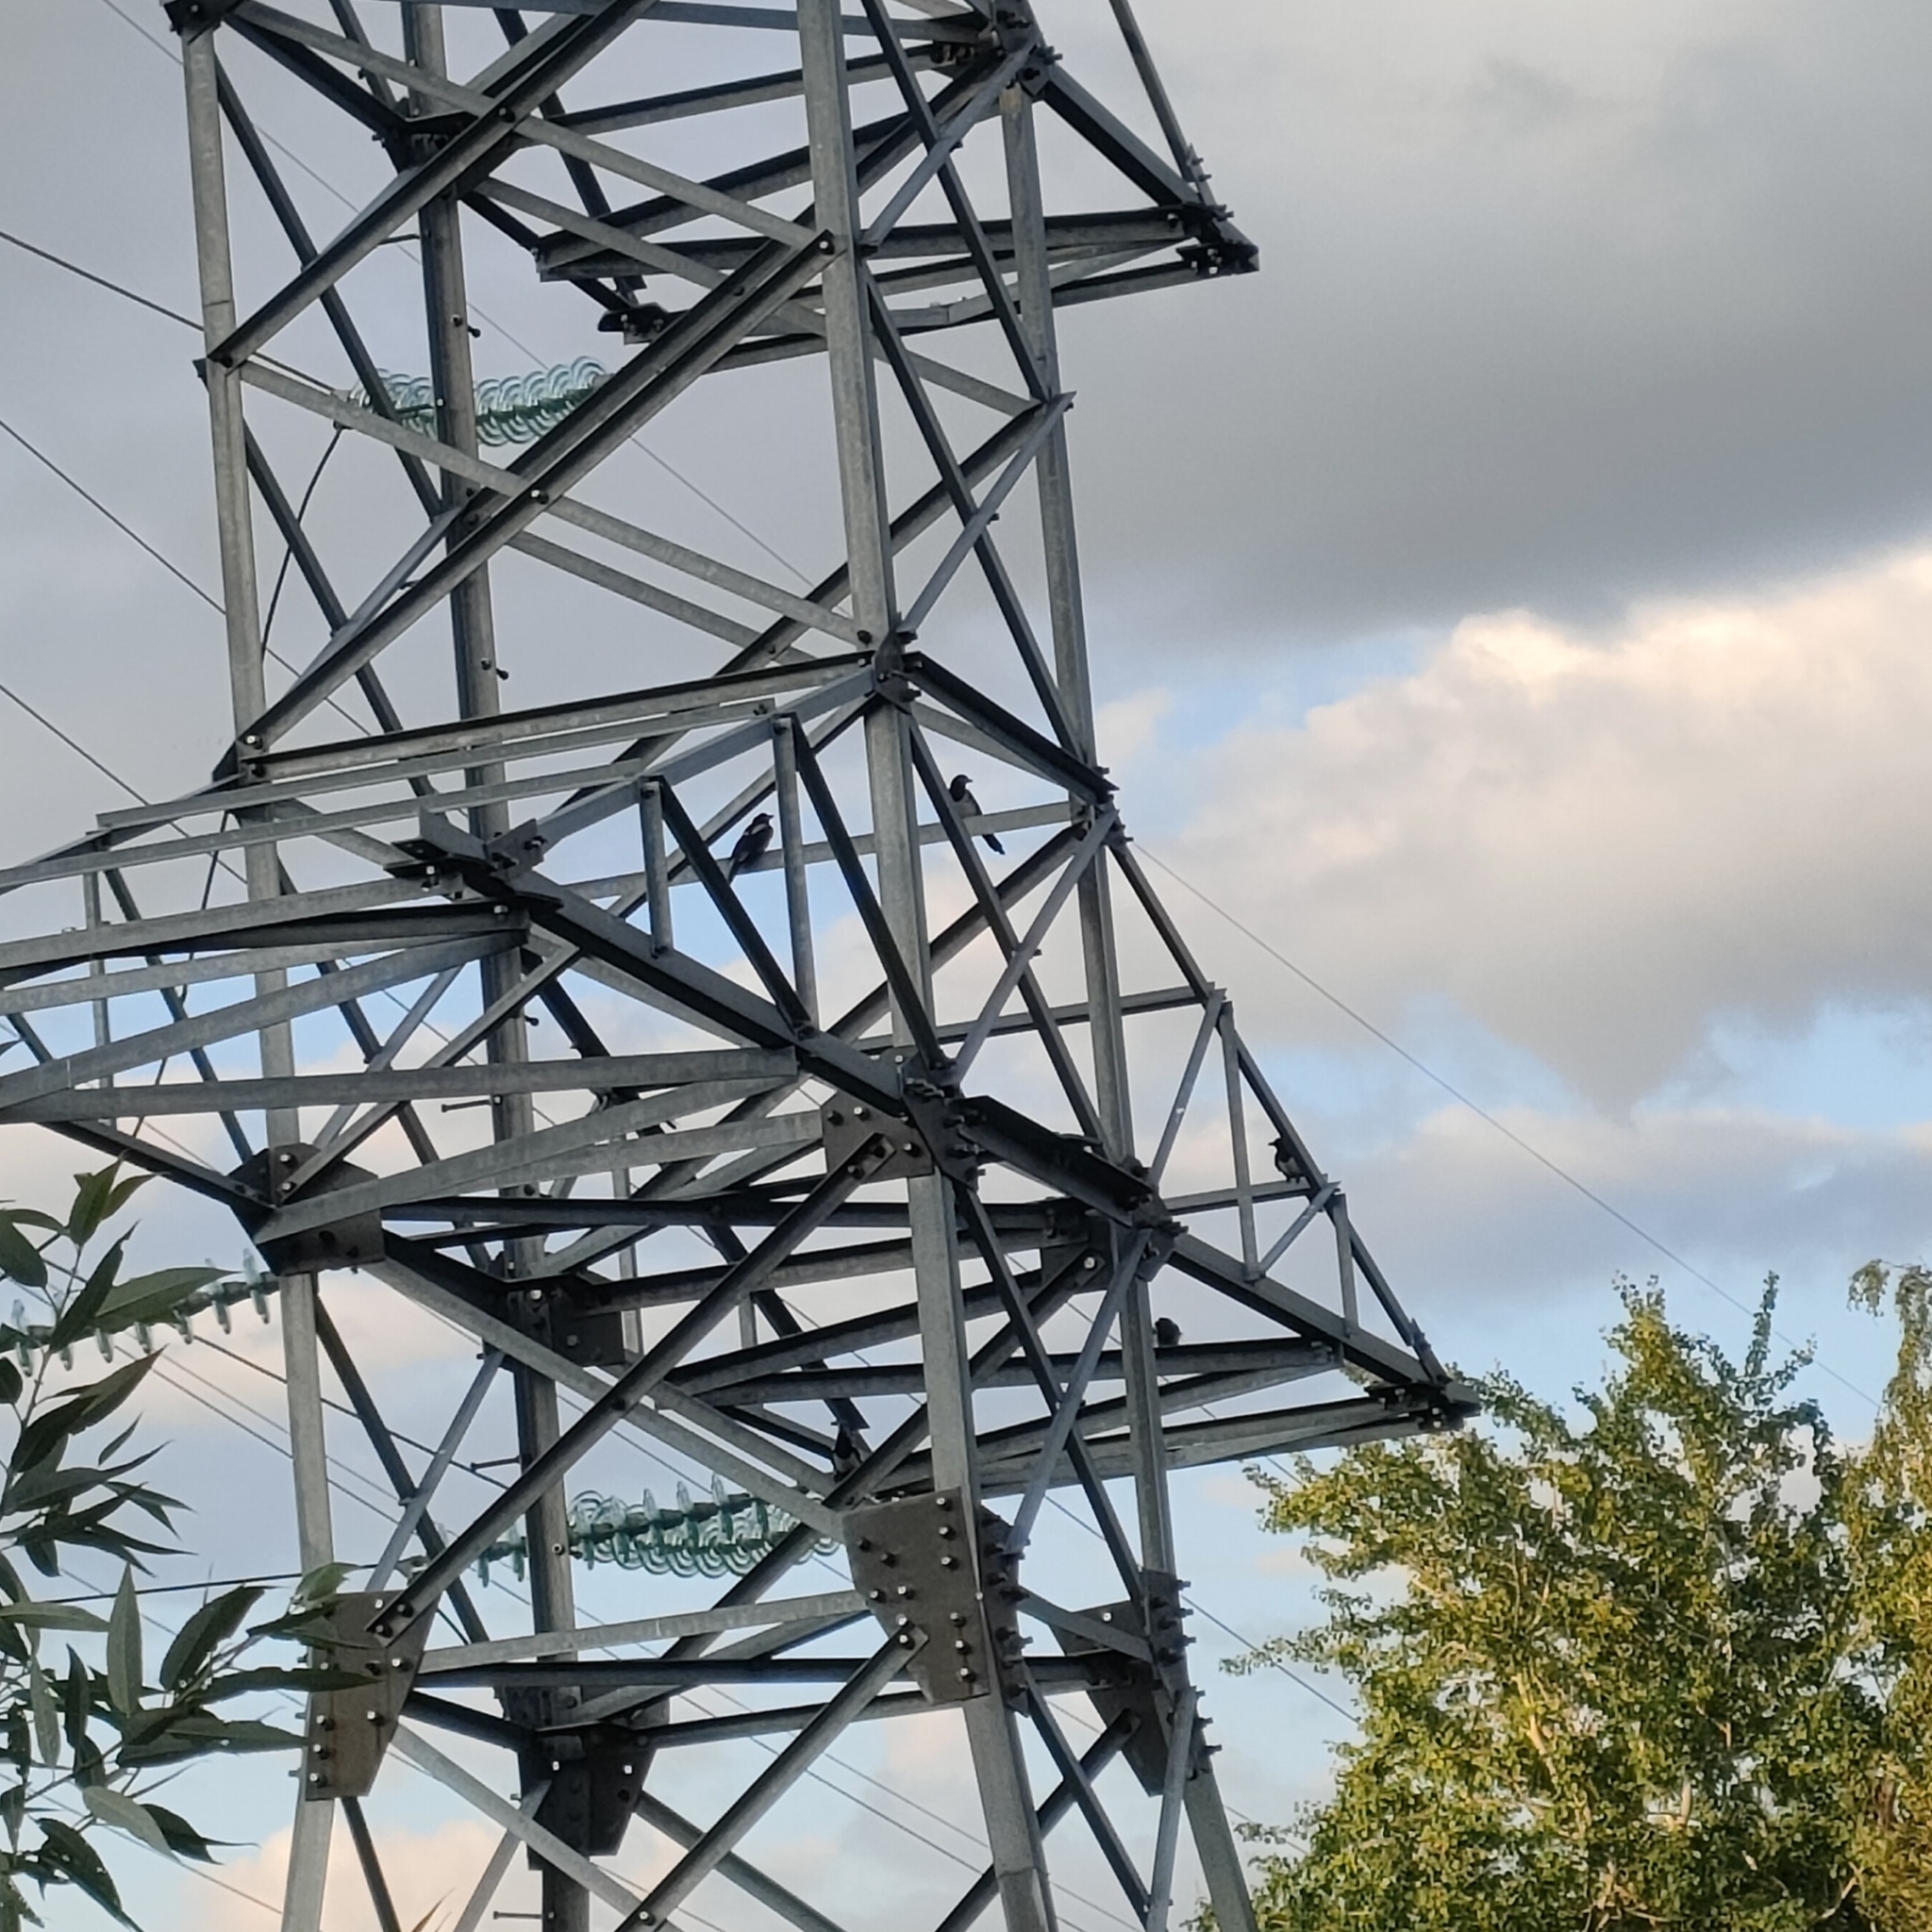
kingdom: Animalia
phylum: Chordata
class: Aves
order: Passeriformes
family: Corvidae
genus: Pica
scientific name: Pica pica
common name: Eurasian magpie
